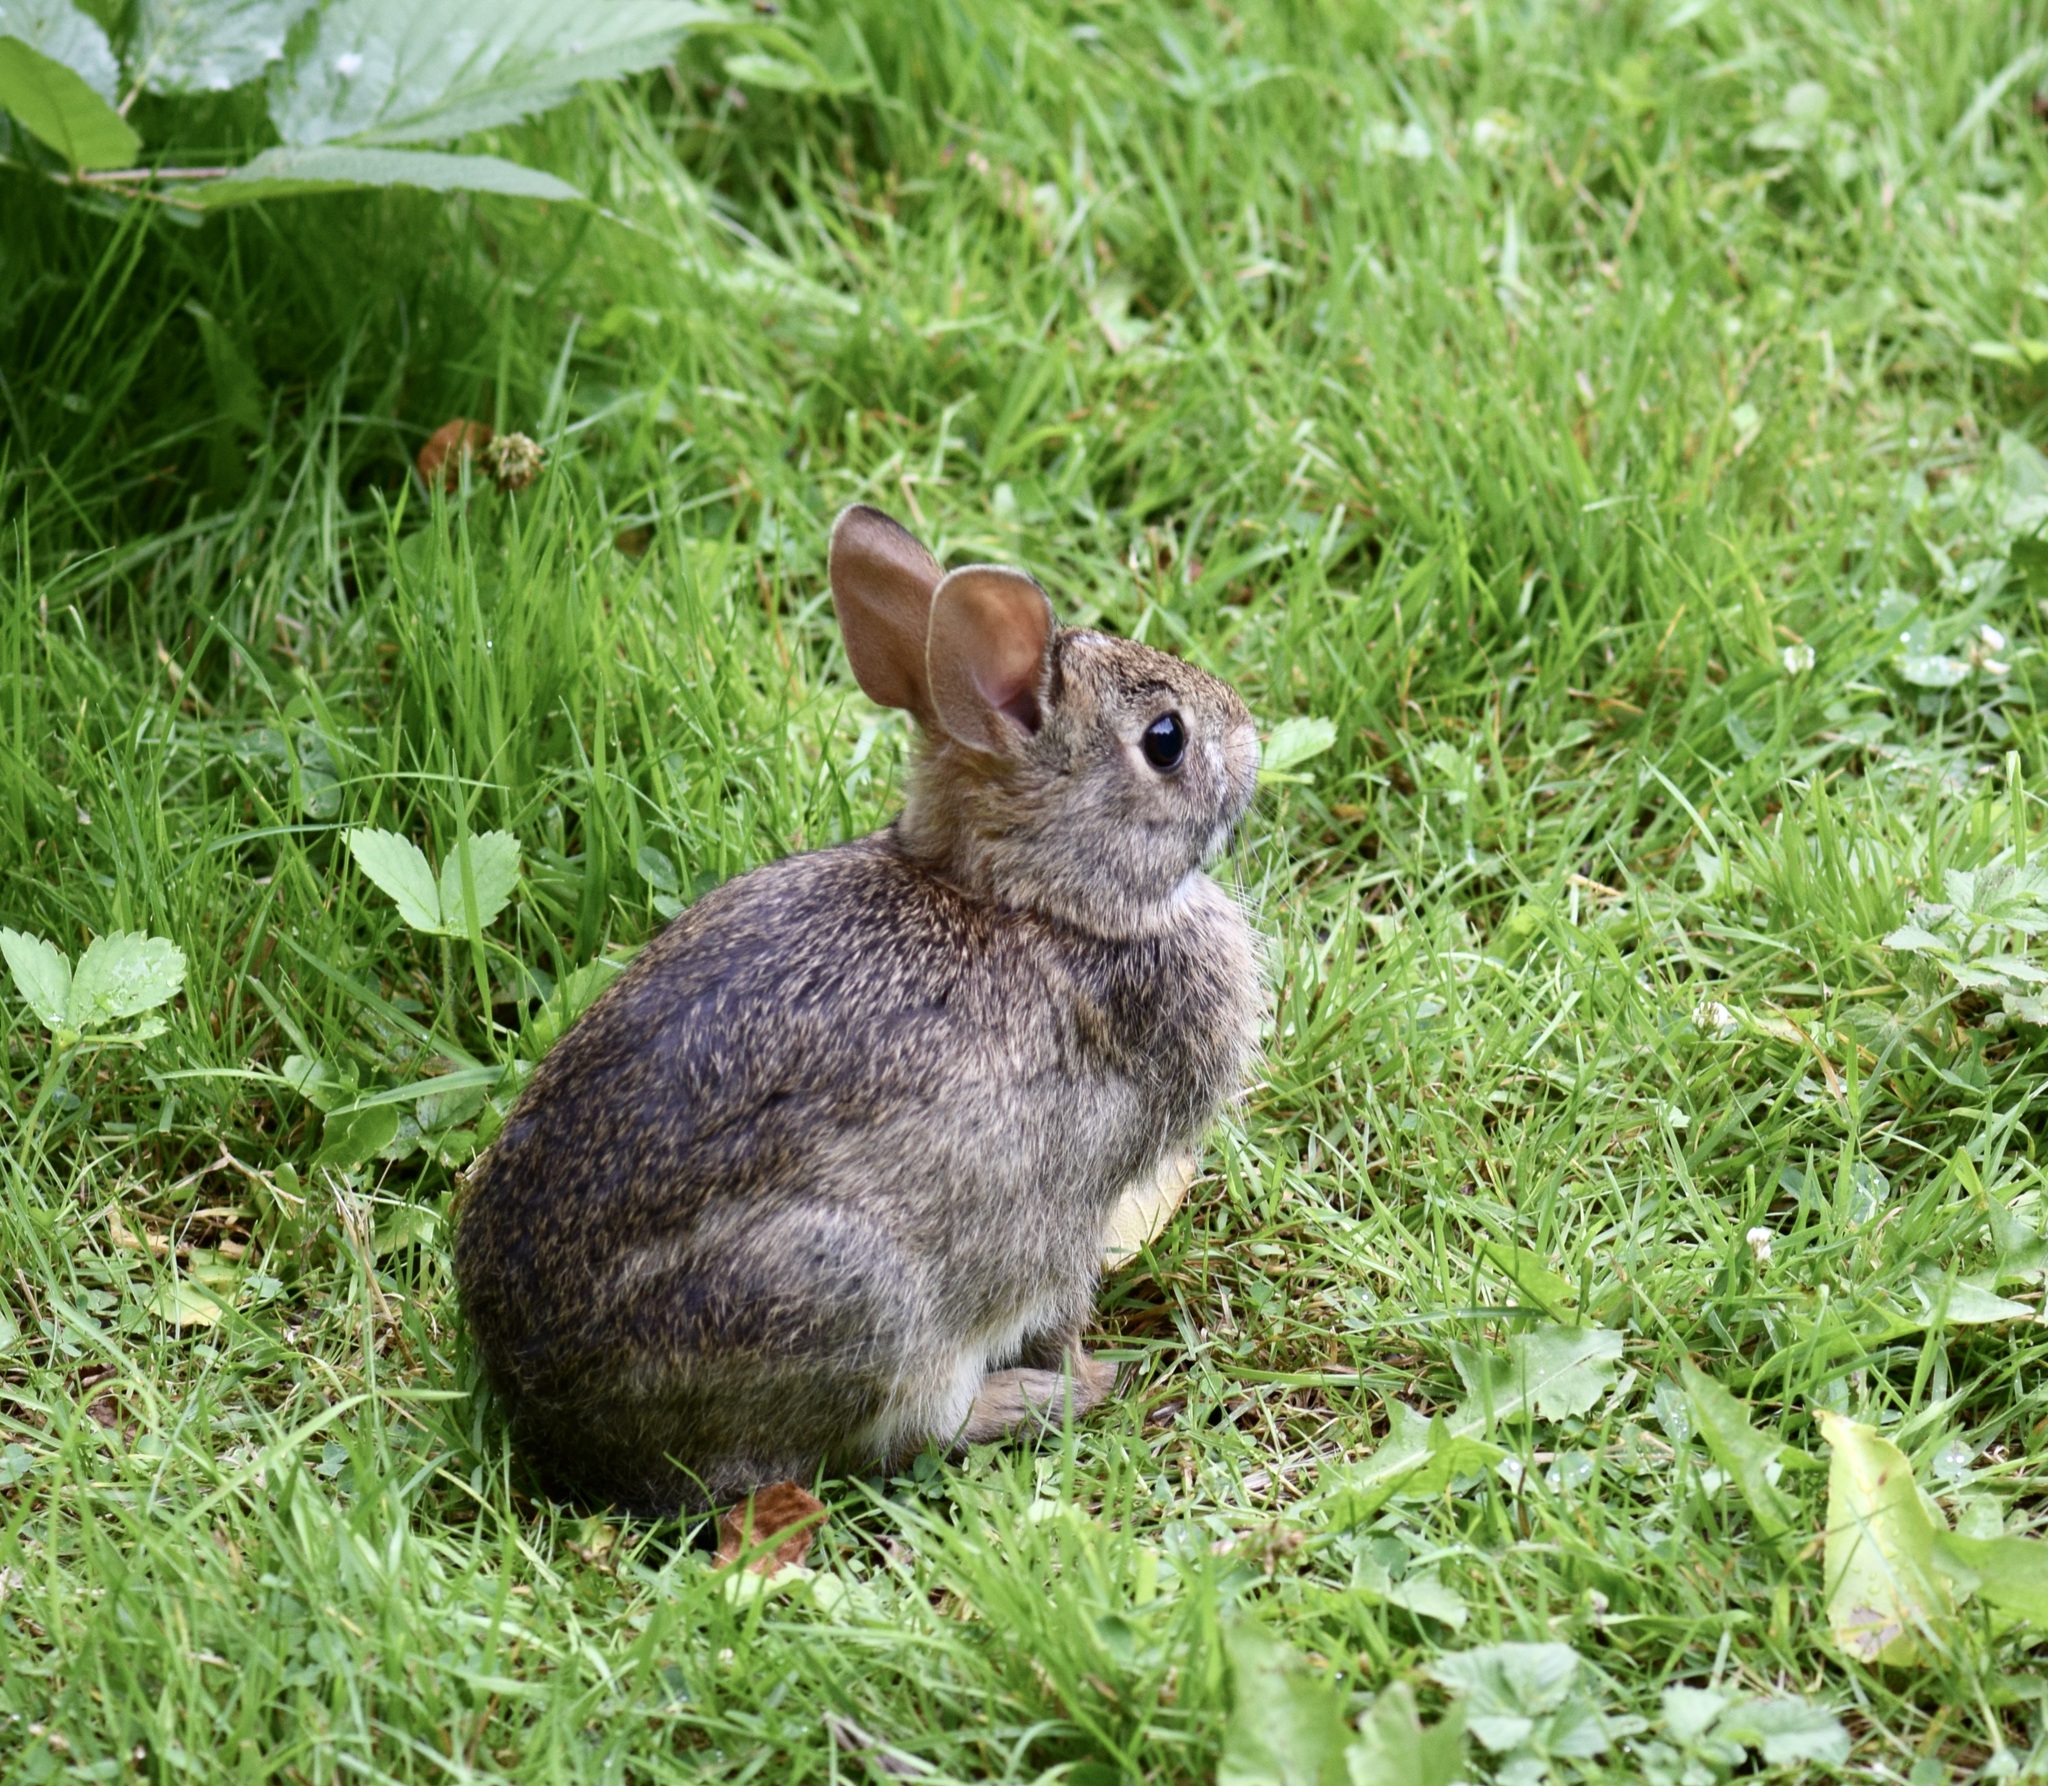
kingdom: Animalia
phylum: Chordata
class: Mammalia
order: Lagomorpha
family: Leporidae
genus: Sylvilagus
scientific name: Sylvilagus floridanus
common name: Eastern cottontail
